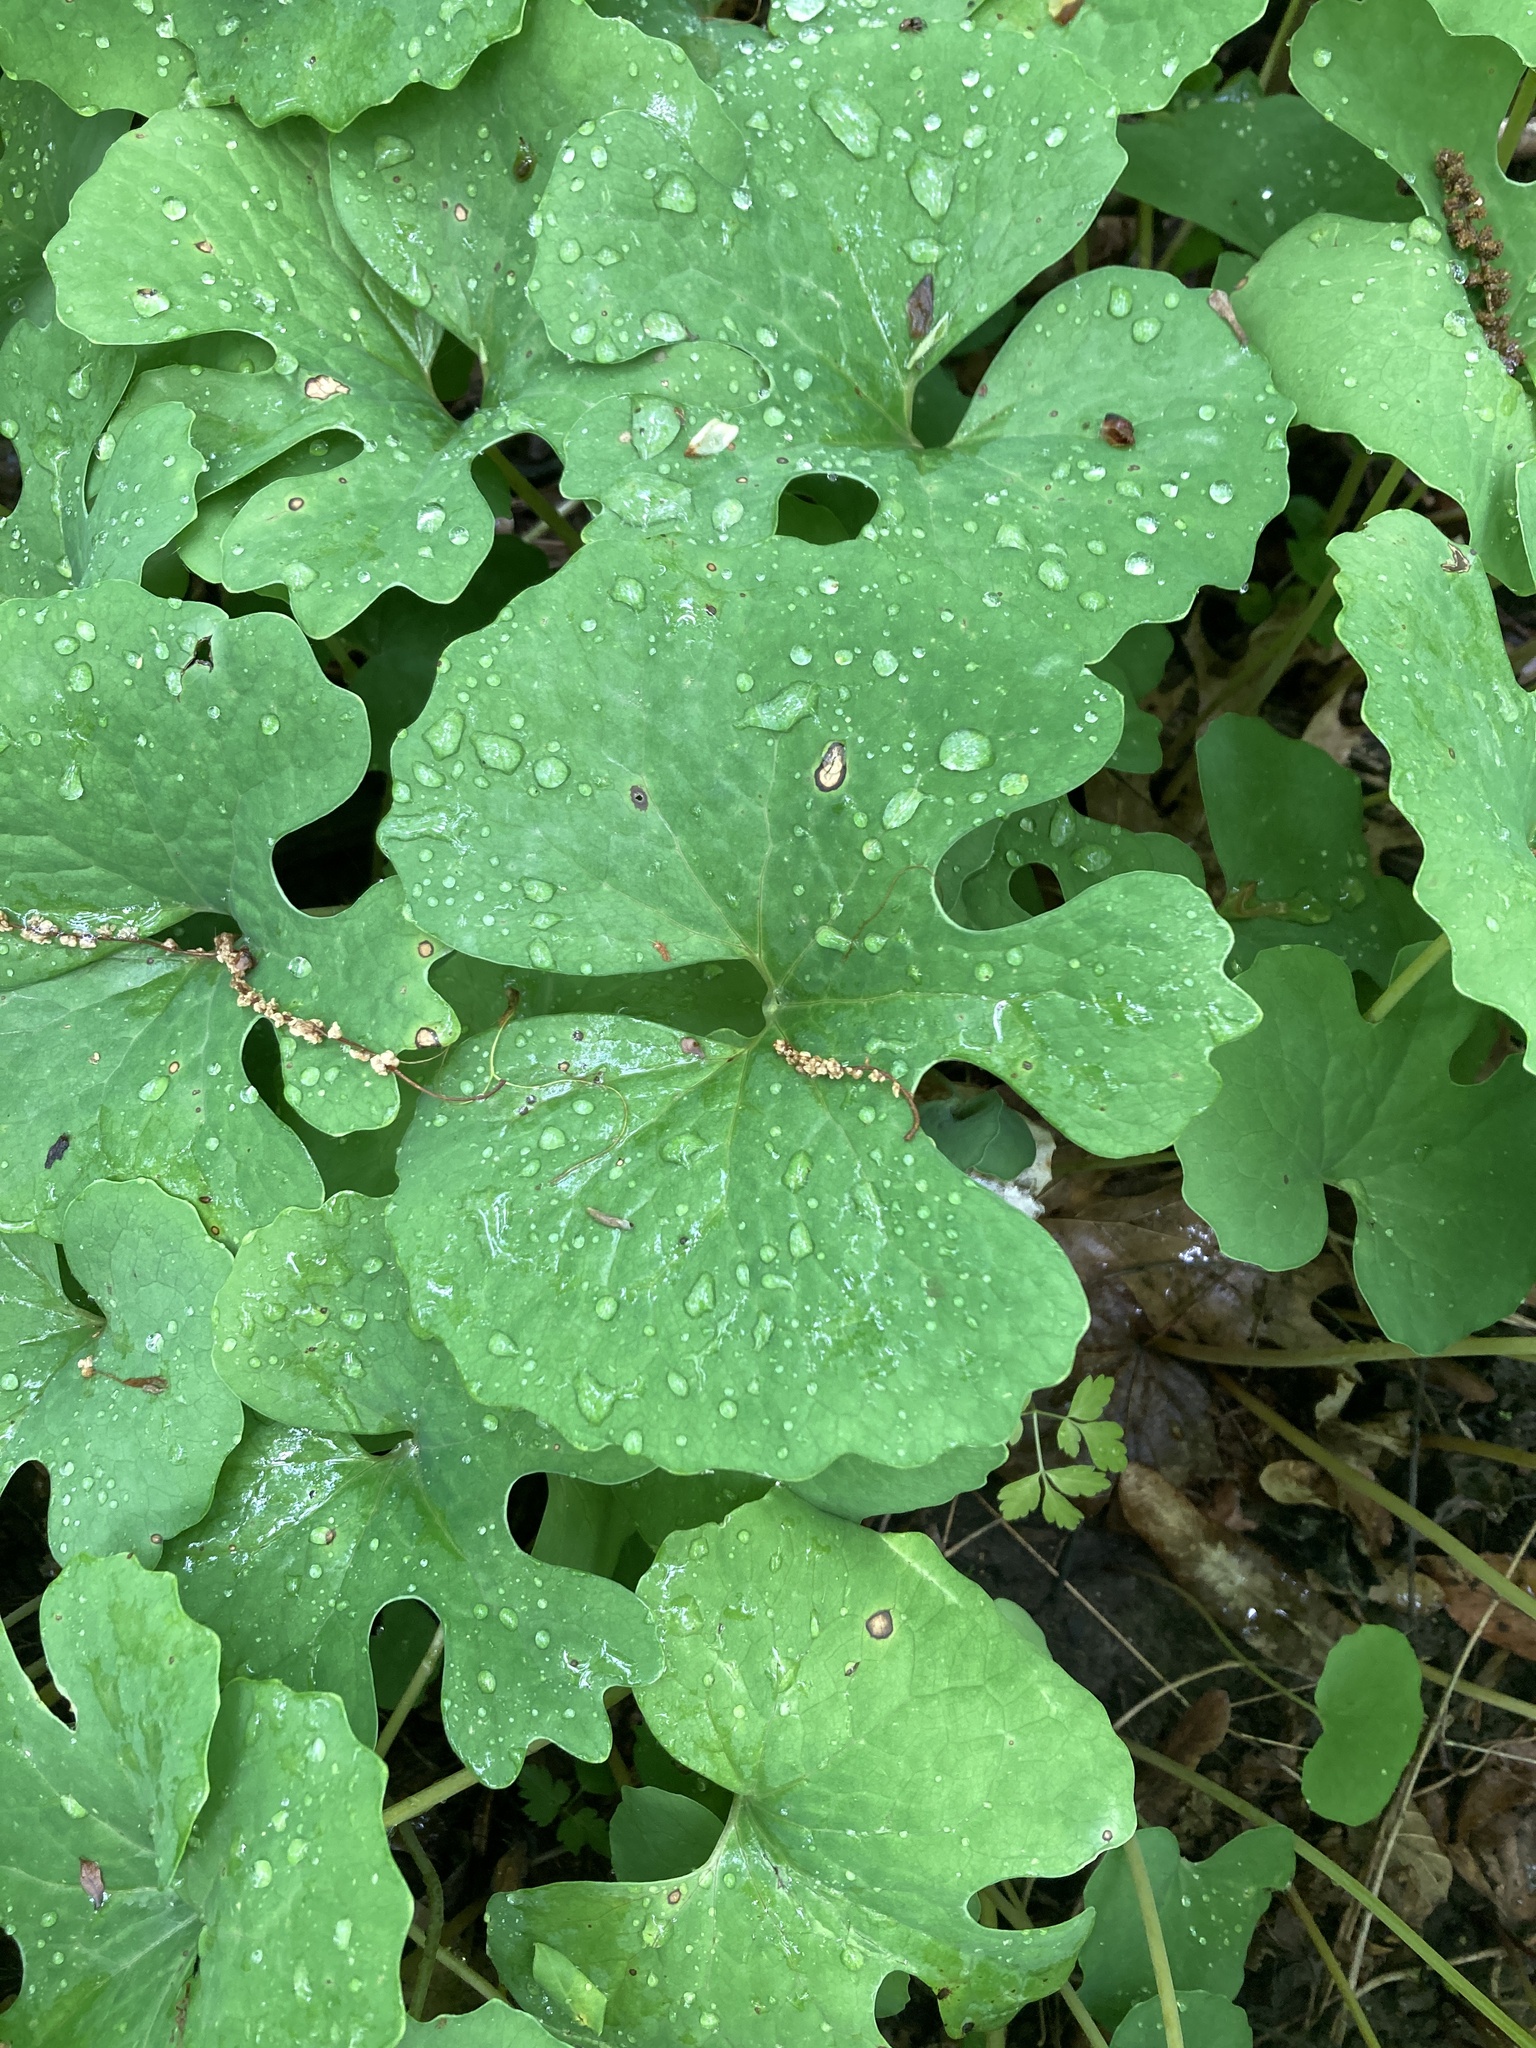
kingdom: Plantae
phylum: Tracheophyta
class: Magnoliopsida
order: Ranunculales
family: Papaveraceae
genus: Sanguinaria
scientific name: Sanguinaria canadensis
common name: Bloodroot
